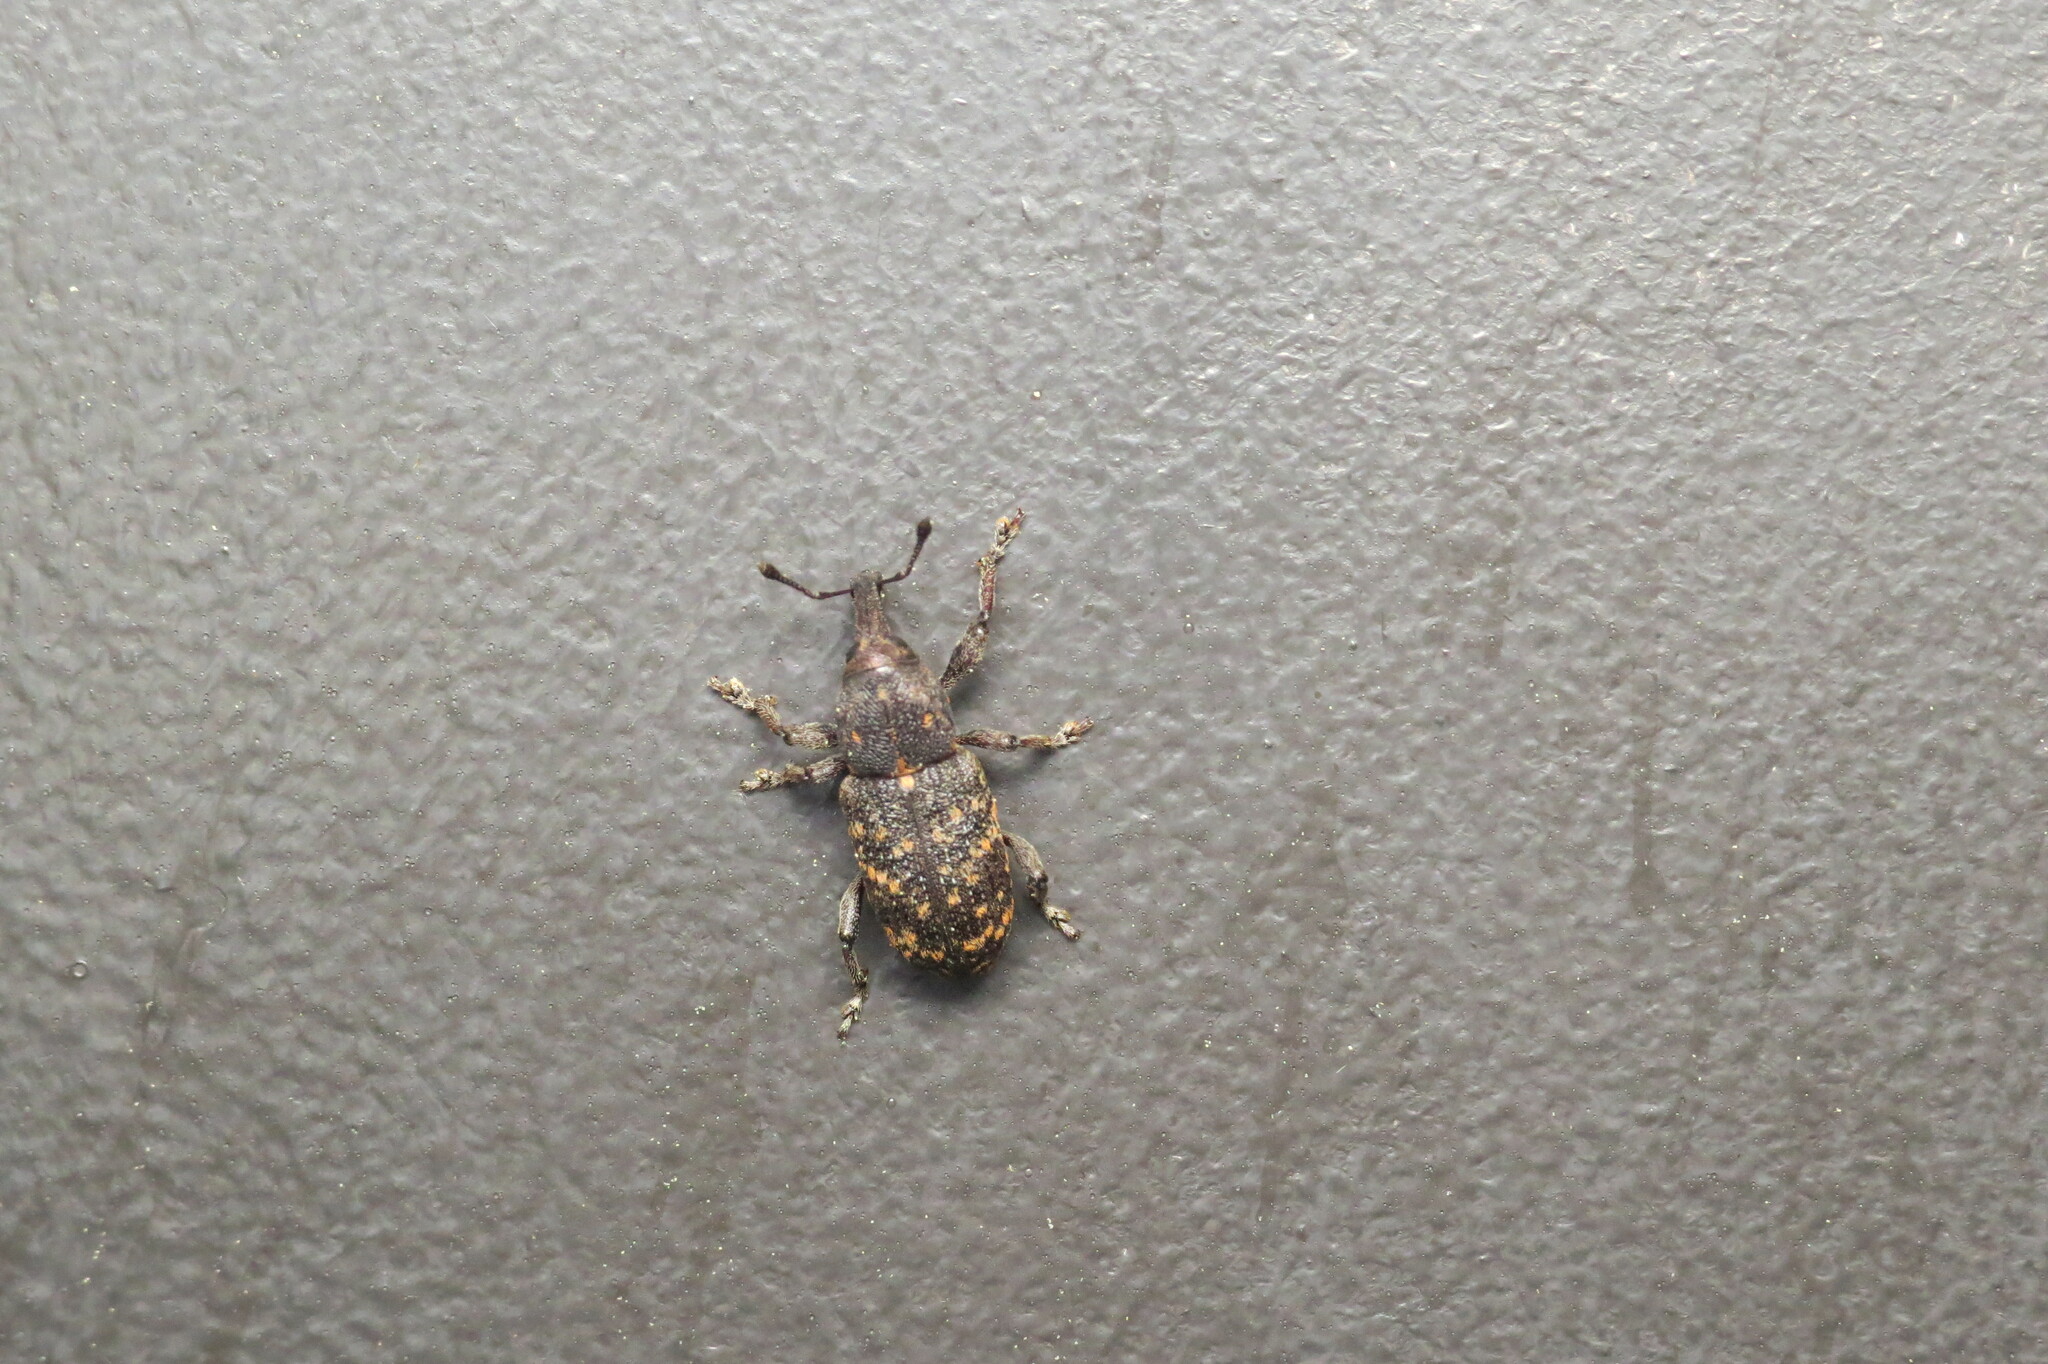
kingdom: Animalia
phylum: Arthropoda
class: Insecta
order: Coleoptera
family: Curculionidae
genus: Hylobius
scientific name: Hylobius pales
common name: Pales weevil
